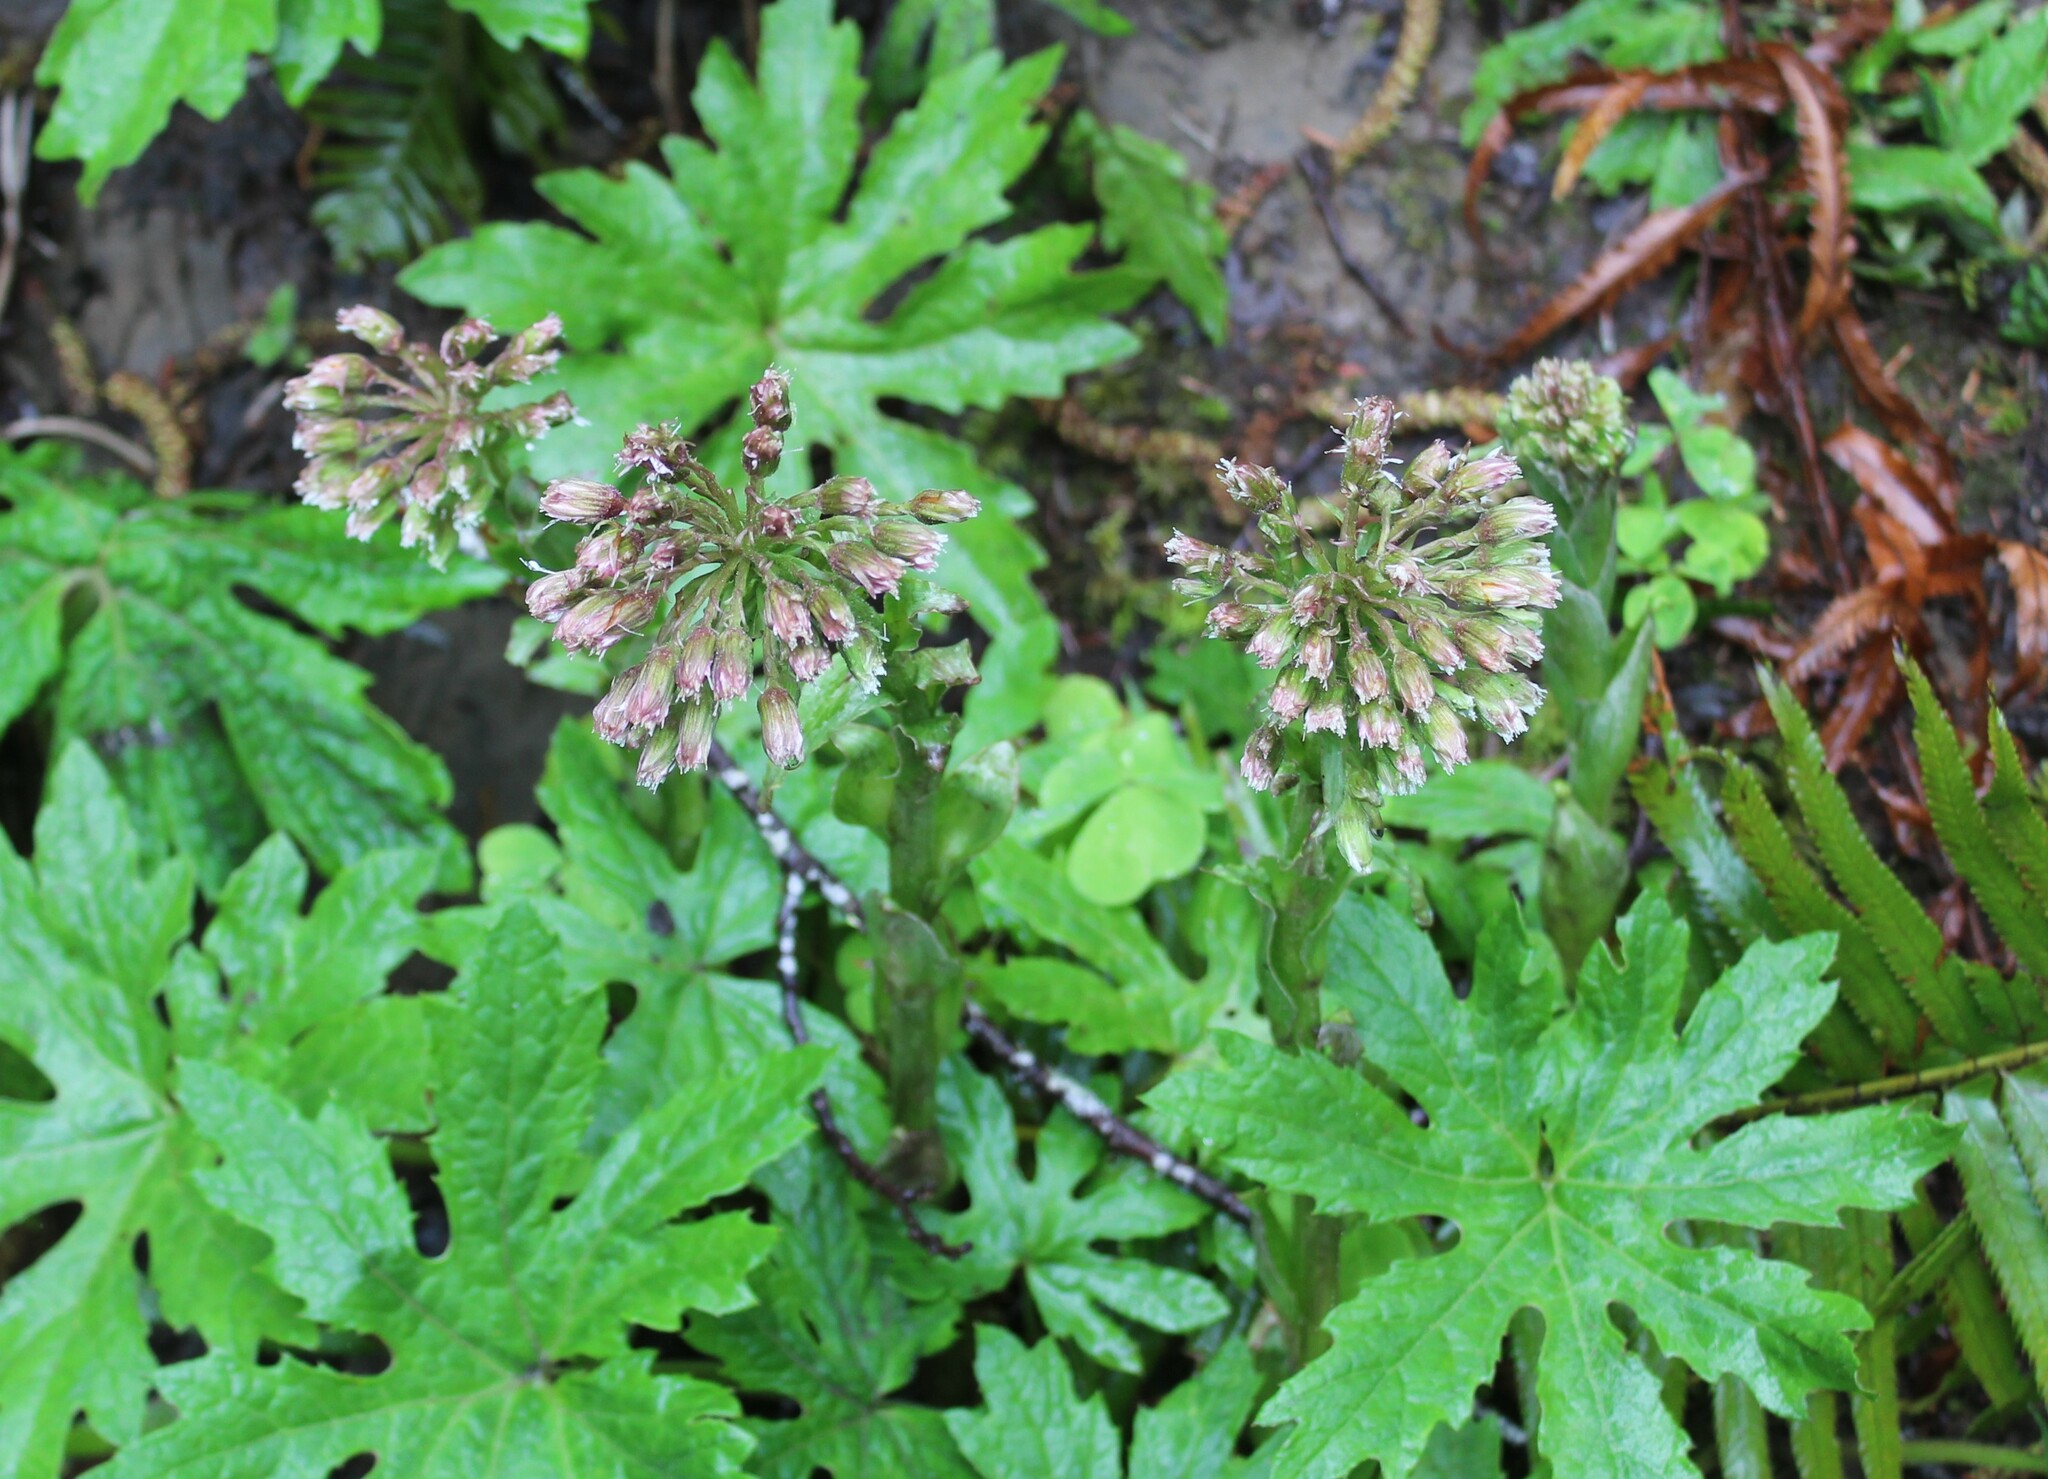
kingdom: Plantae
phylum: Tracheophyta
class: Magnoliopsida
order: Asterales
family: Asteraceae
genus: Petasites
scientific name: Petasites frigidus
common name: Arctic butterbur
